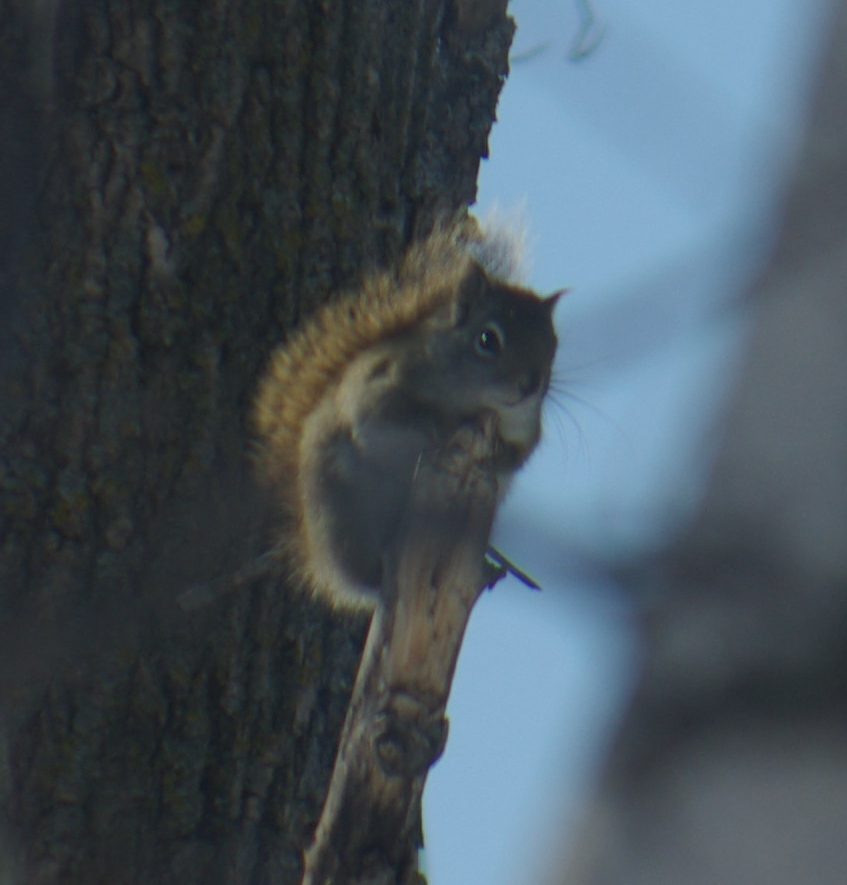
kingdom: Animalia
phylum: Chordata
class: Mammalia
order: Rodentia
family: Sciuridae
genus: Tamiasciurus
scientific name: Tamiasciurus hudsonicus
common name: Red squirrel
